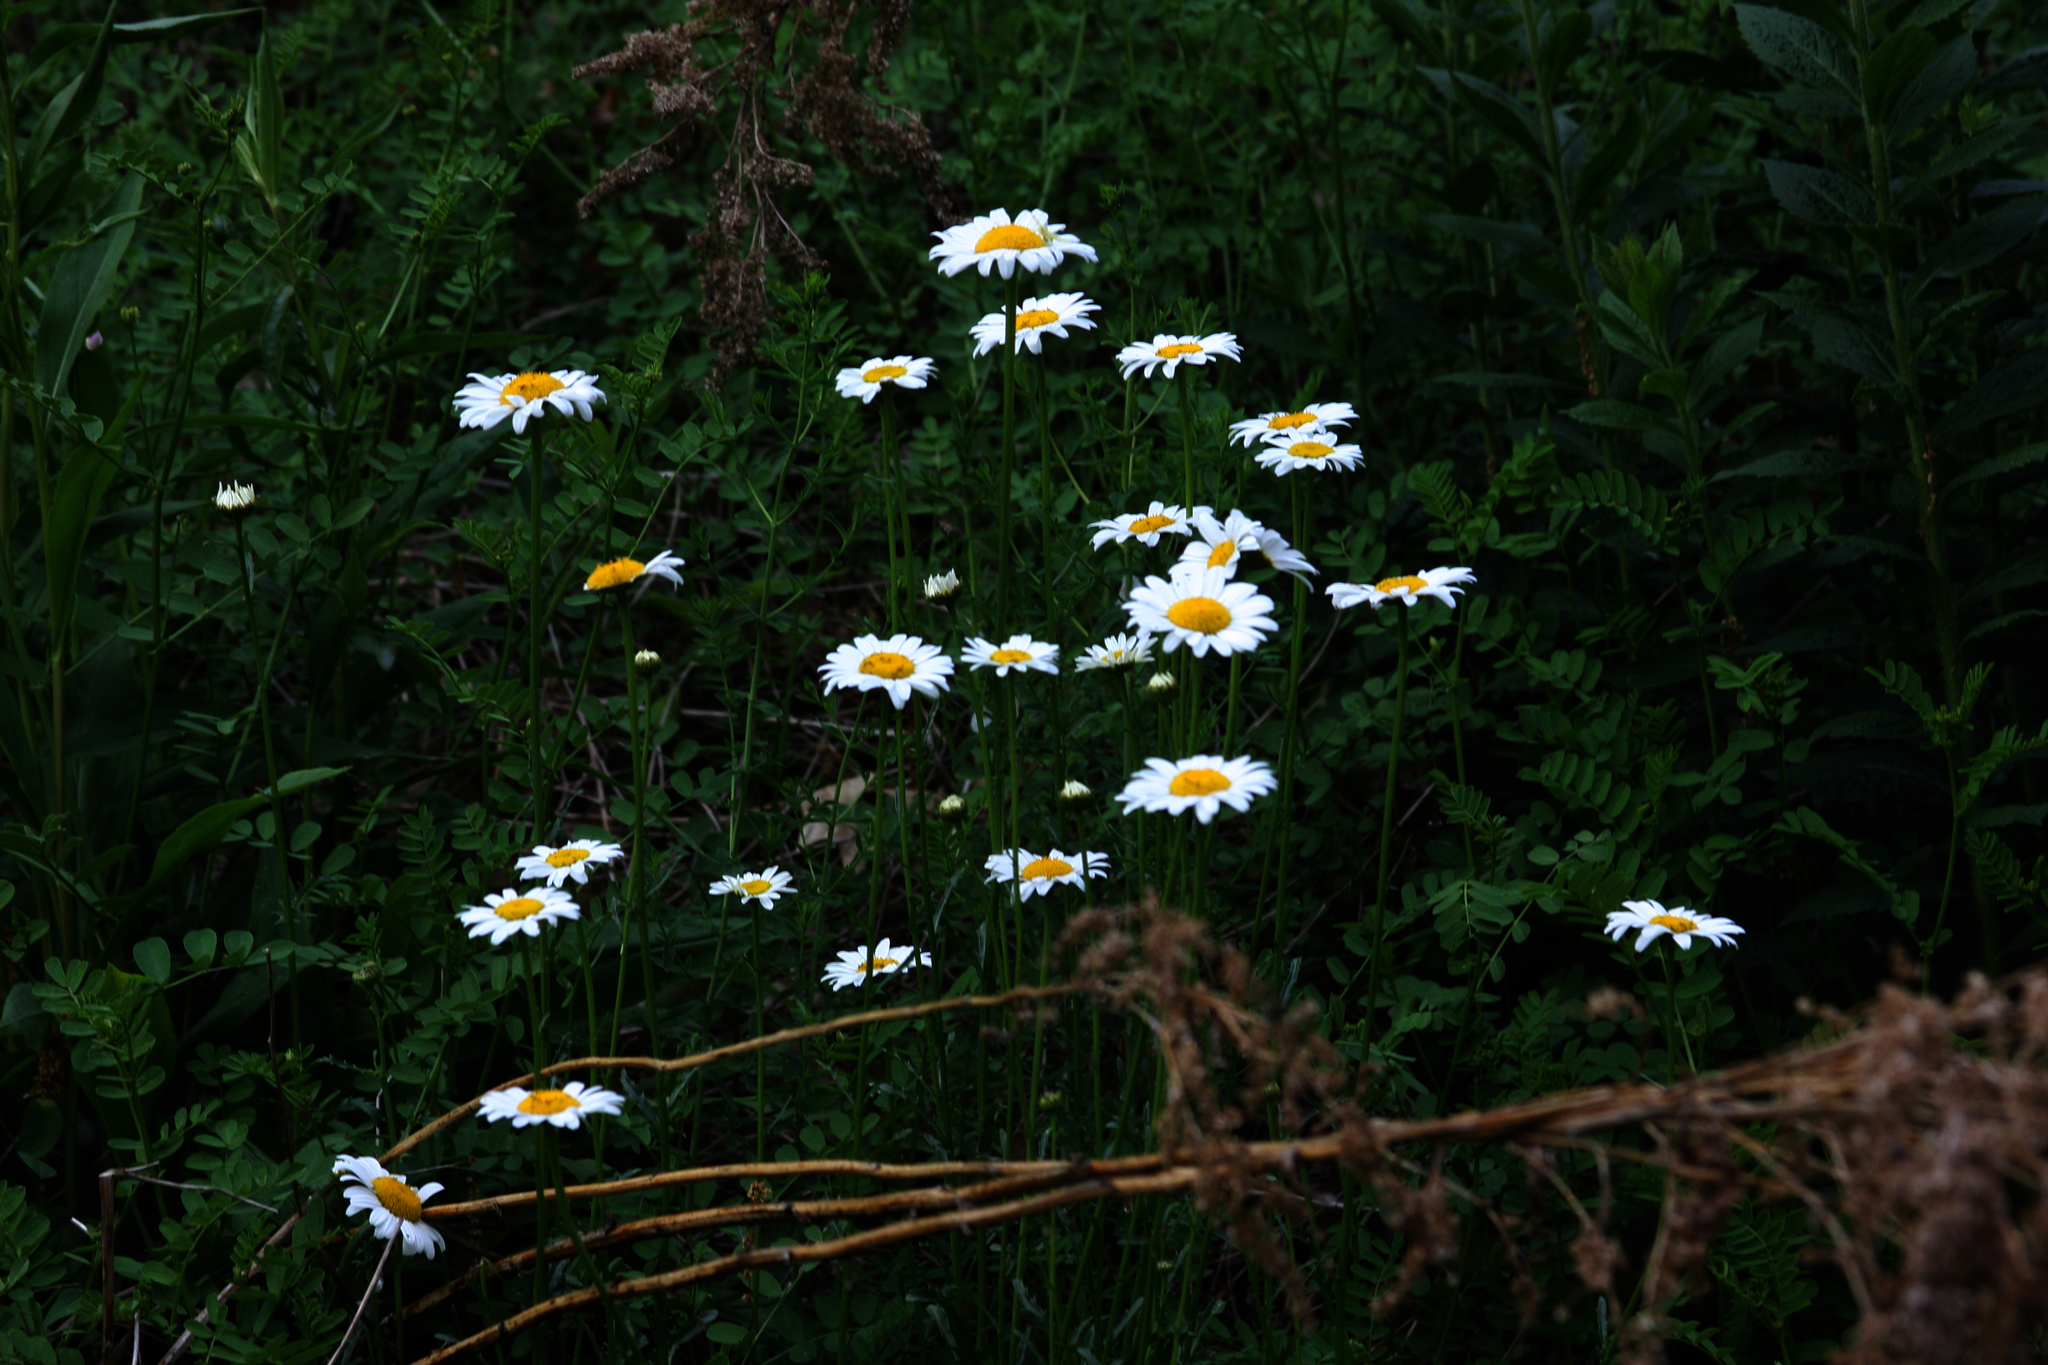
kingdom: Plantae
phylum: Tracheophyta
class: Magnoliopsida
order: Asterales
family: Asteraceae
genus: Leucanthemum
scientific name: Leucanthemum vulgare
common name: Oxeye daisy
